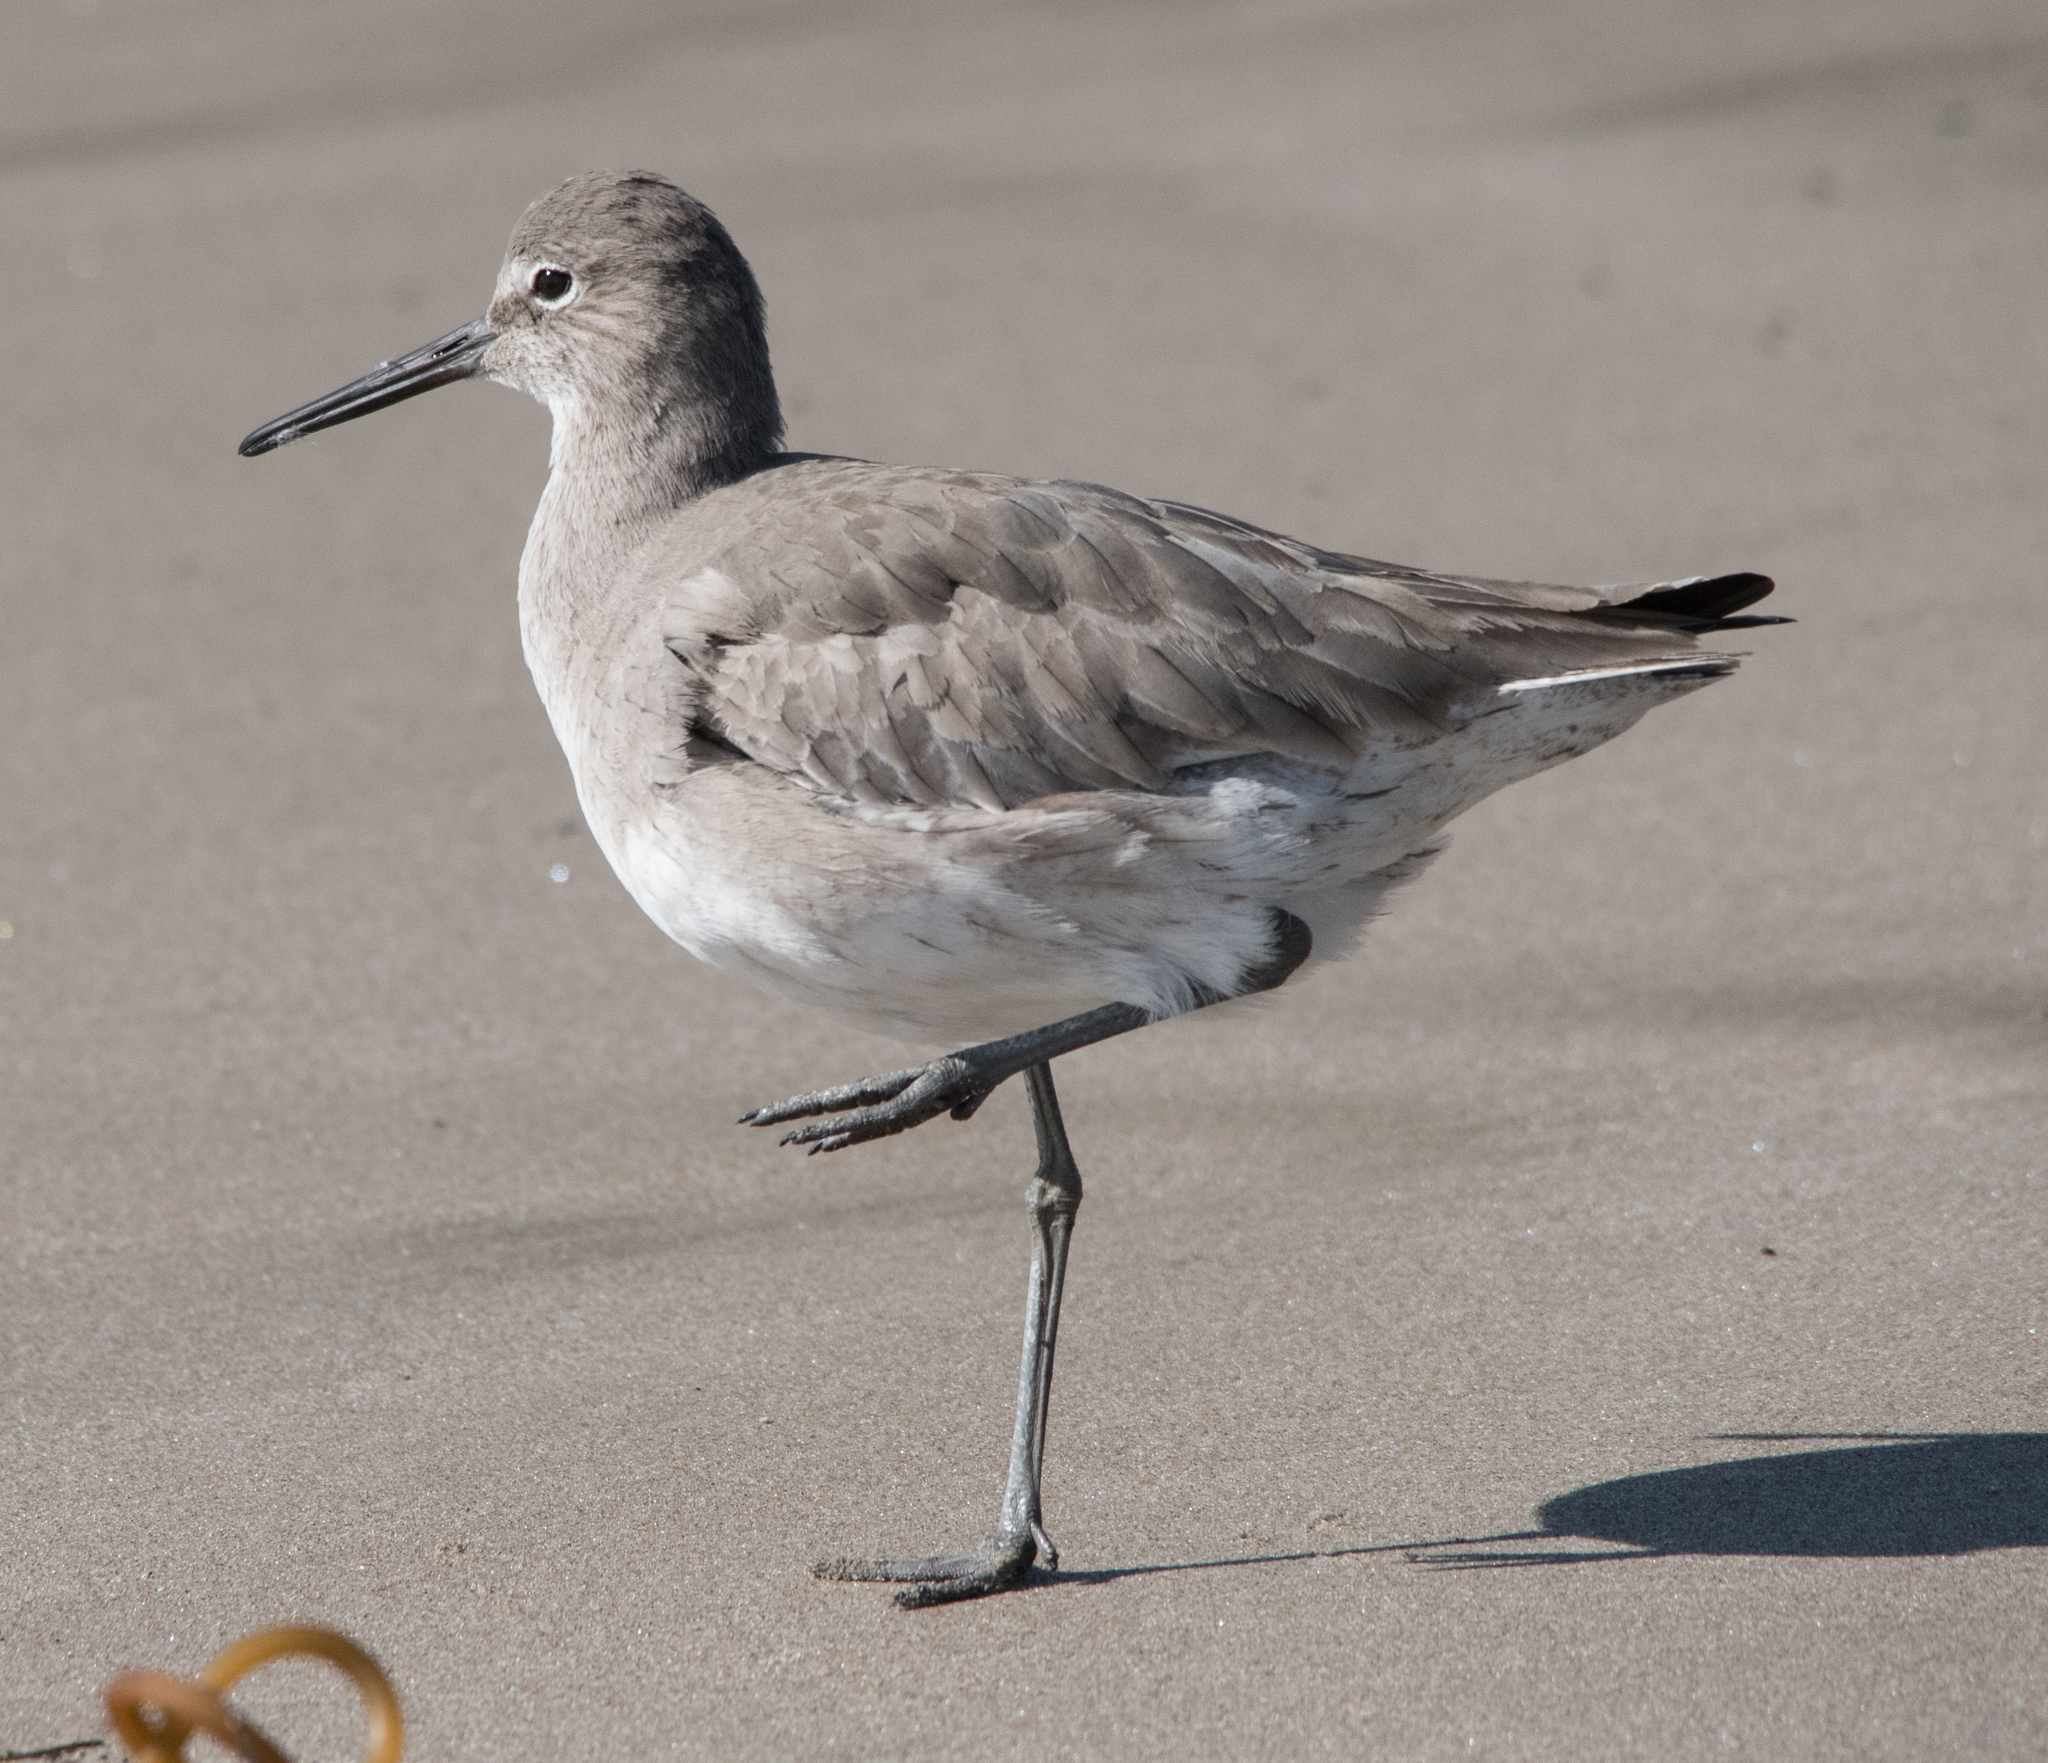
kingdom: Animalia
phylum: Chordata
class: Aves
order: Charadriiformes
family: Scolopacidae
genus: Tringa
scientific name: Tringa semipalmata
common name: Willet
